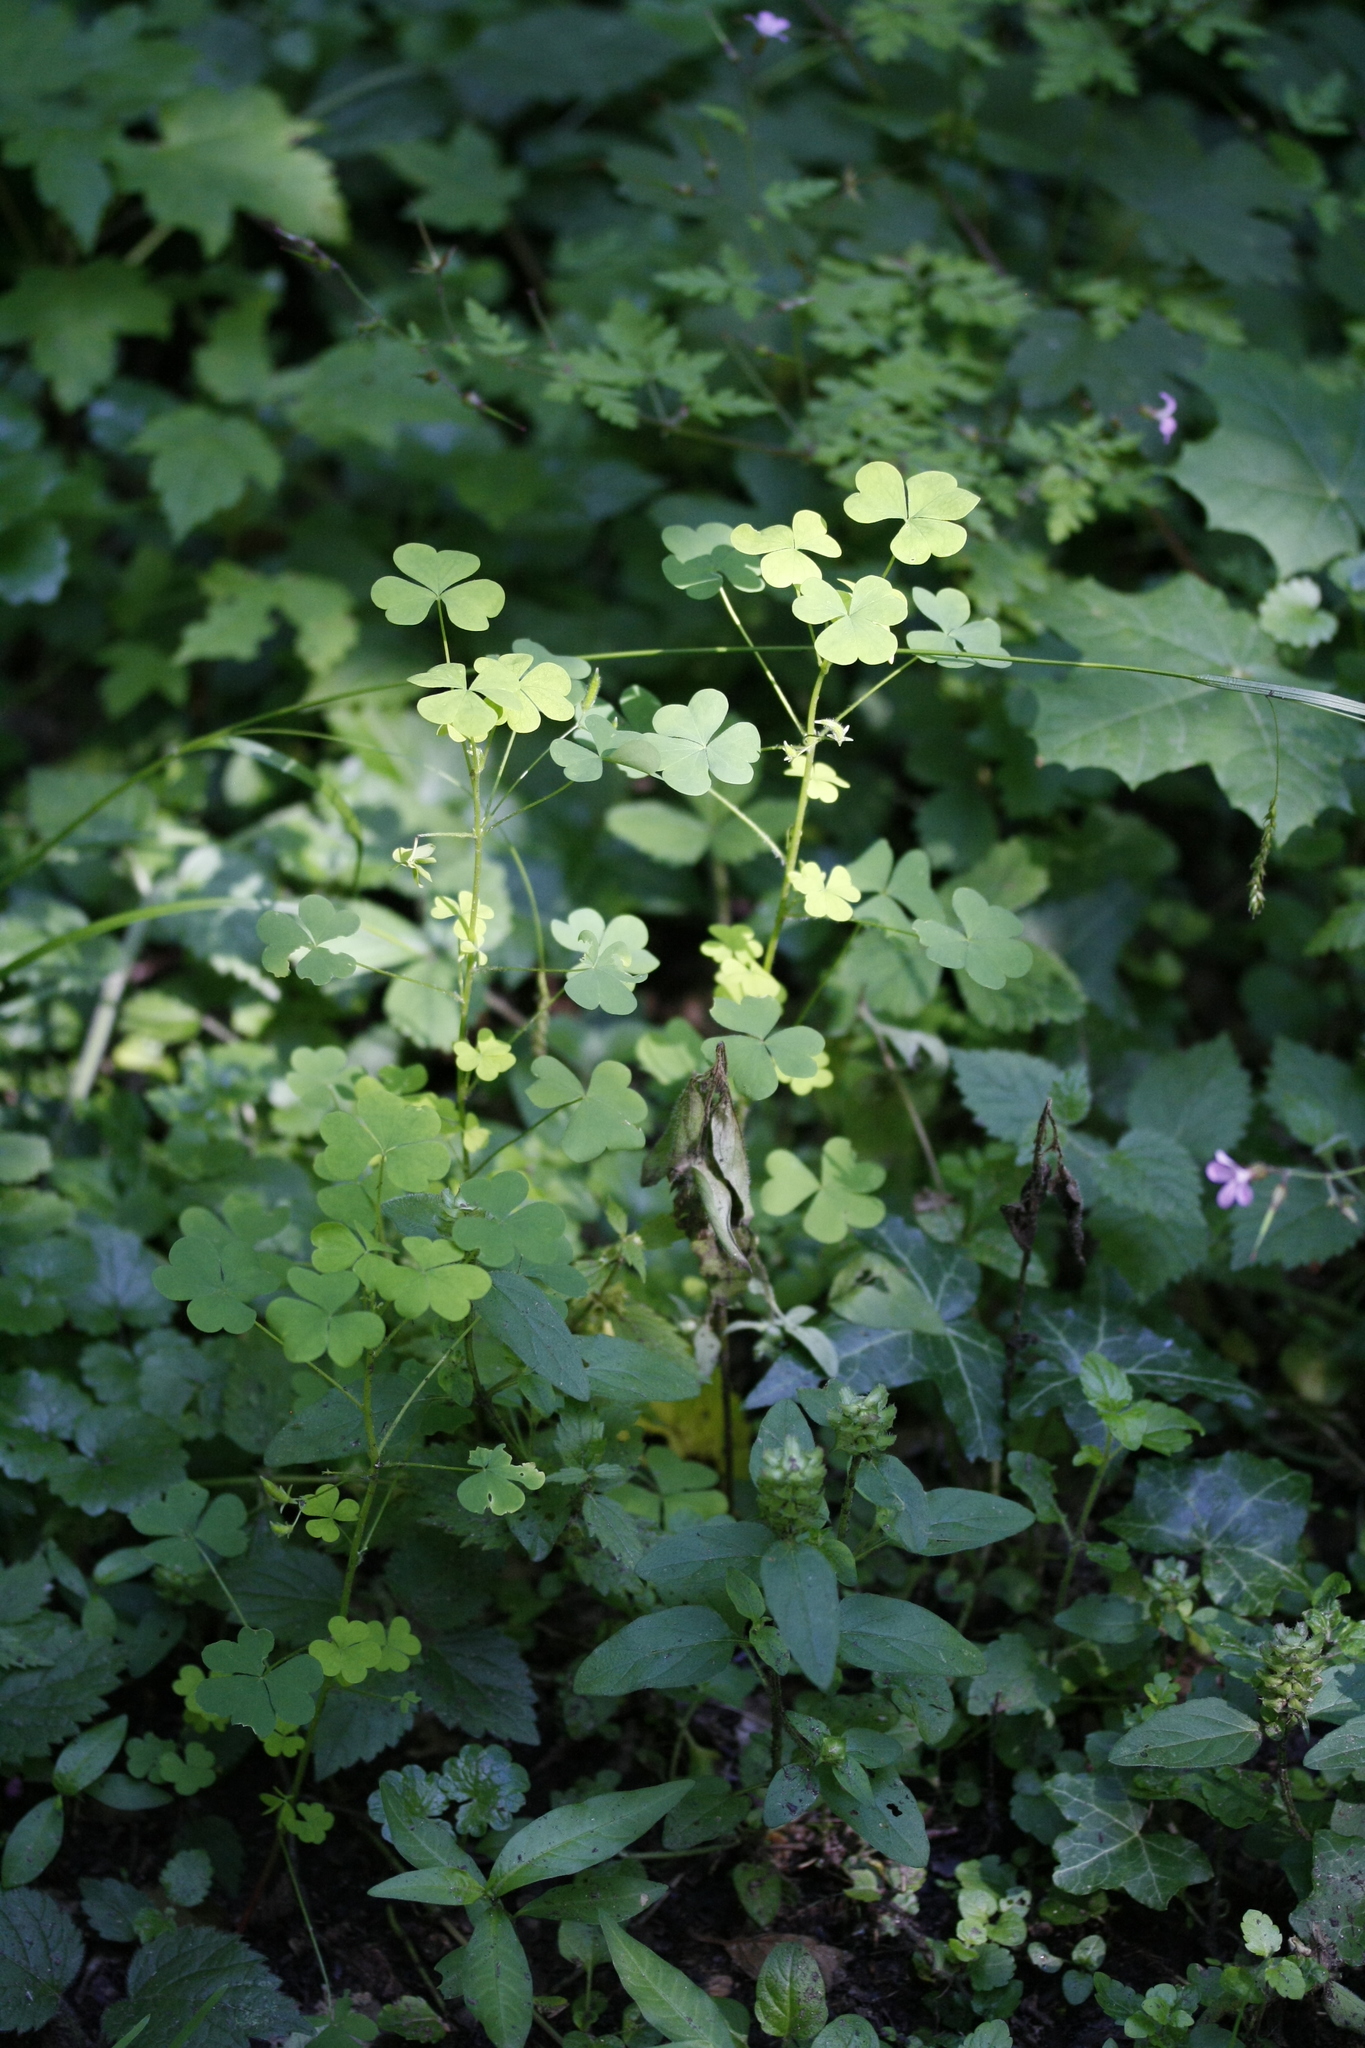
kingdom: Plantae
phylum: Tracheophyta
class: Magnoliopsida
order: Oxalidales
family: Oxalidaceae
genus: Oxalis
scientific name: Oxalis stricta
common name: Upright yellow-sorrel
